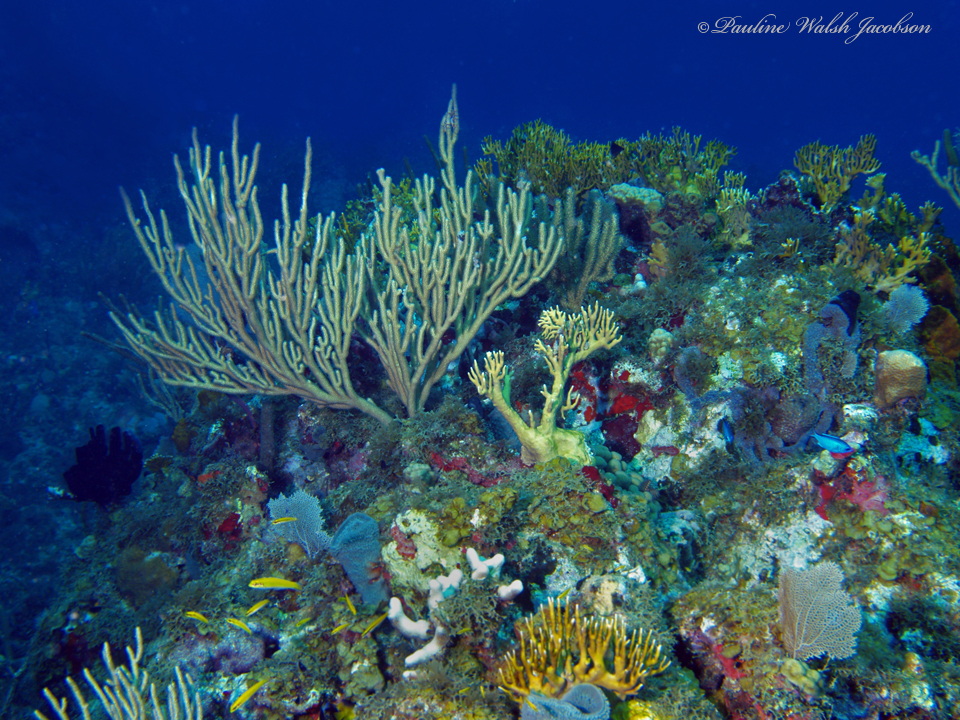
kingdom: Animalia
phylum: Chordata
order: Perciformes
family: Labridae
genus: Thalassoma
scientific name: Thalassoma bifasciatum
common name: Bluehead wrasse
